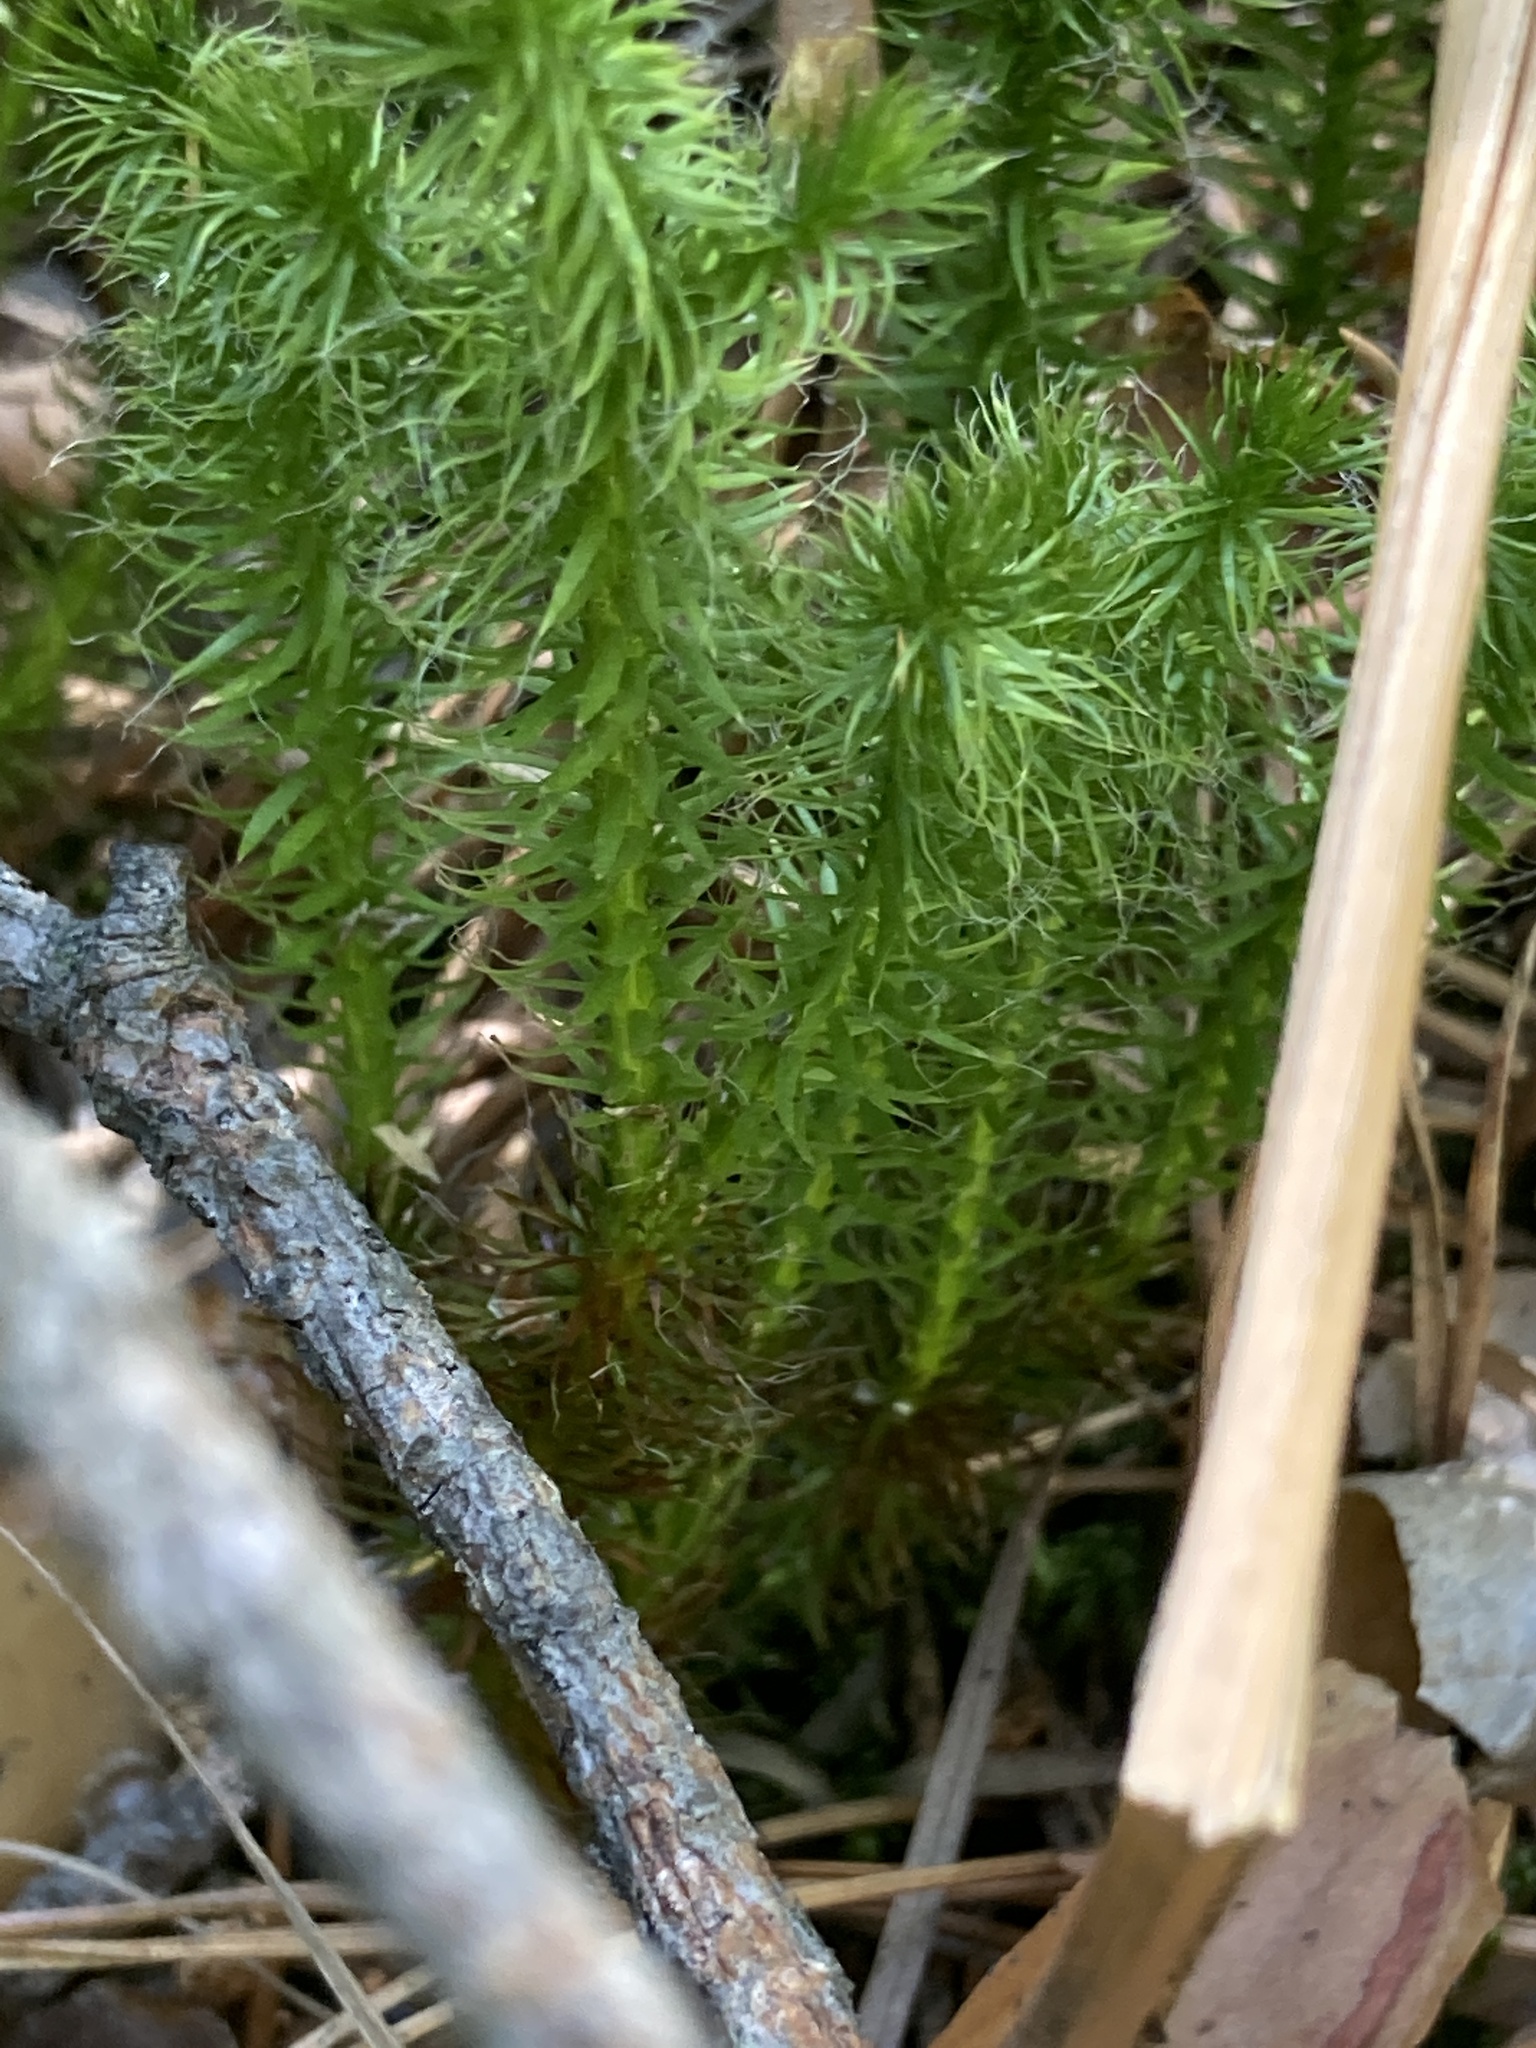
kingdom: Plantae
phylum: Tracheophyta
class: Lycopodiopsida
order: Lycopodiales
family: Lycopodiaceae
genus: Lycopodium
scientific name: Lycopodium clavatum
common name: Stag's-horn clubmoss
